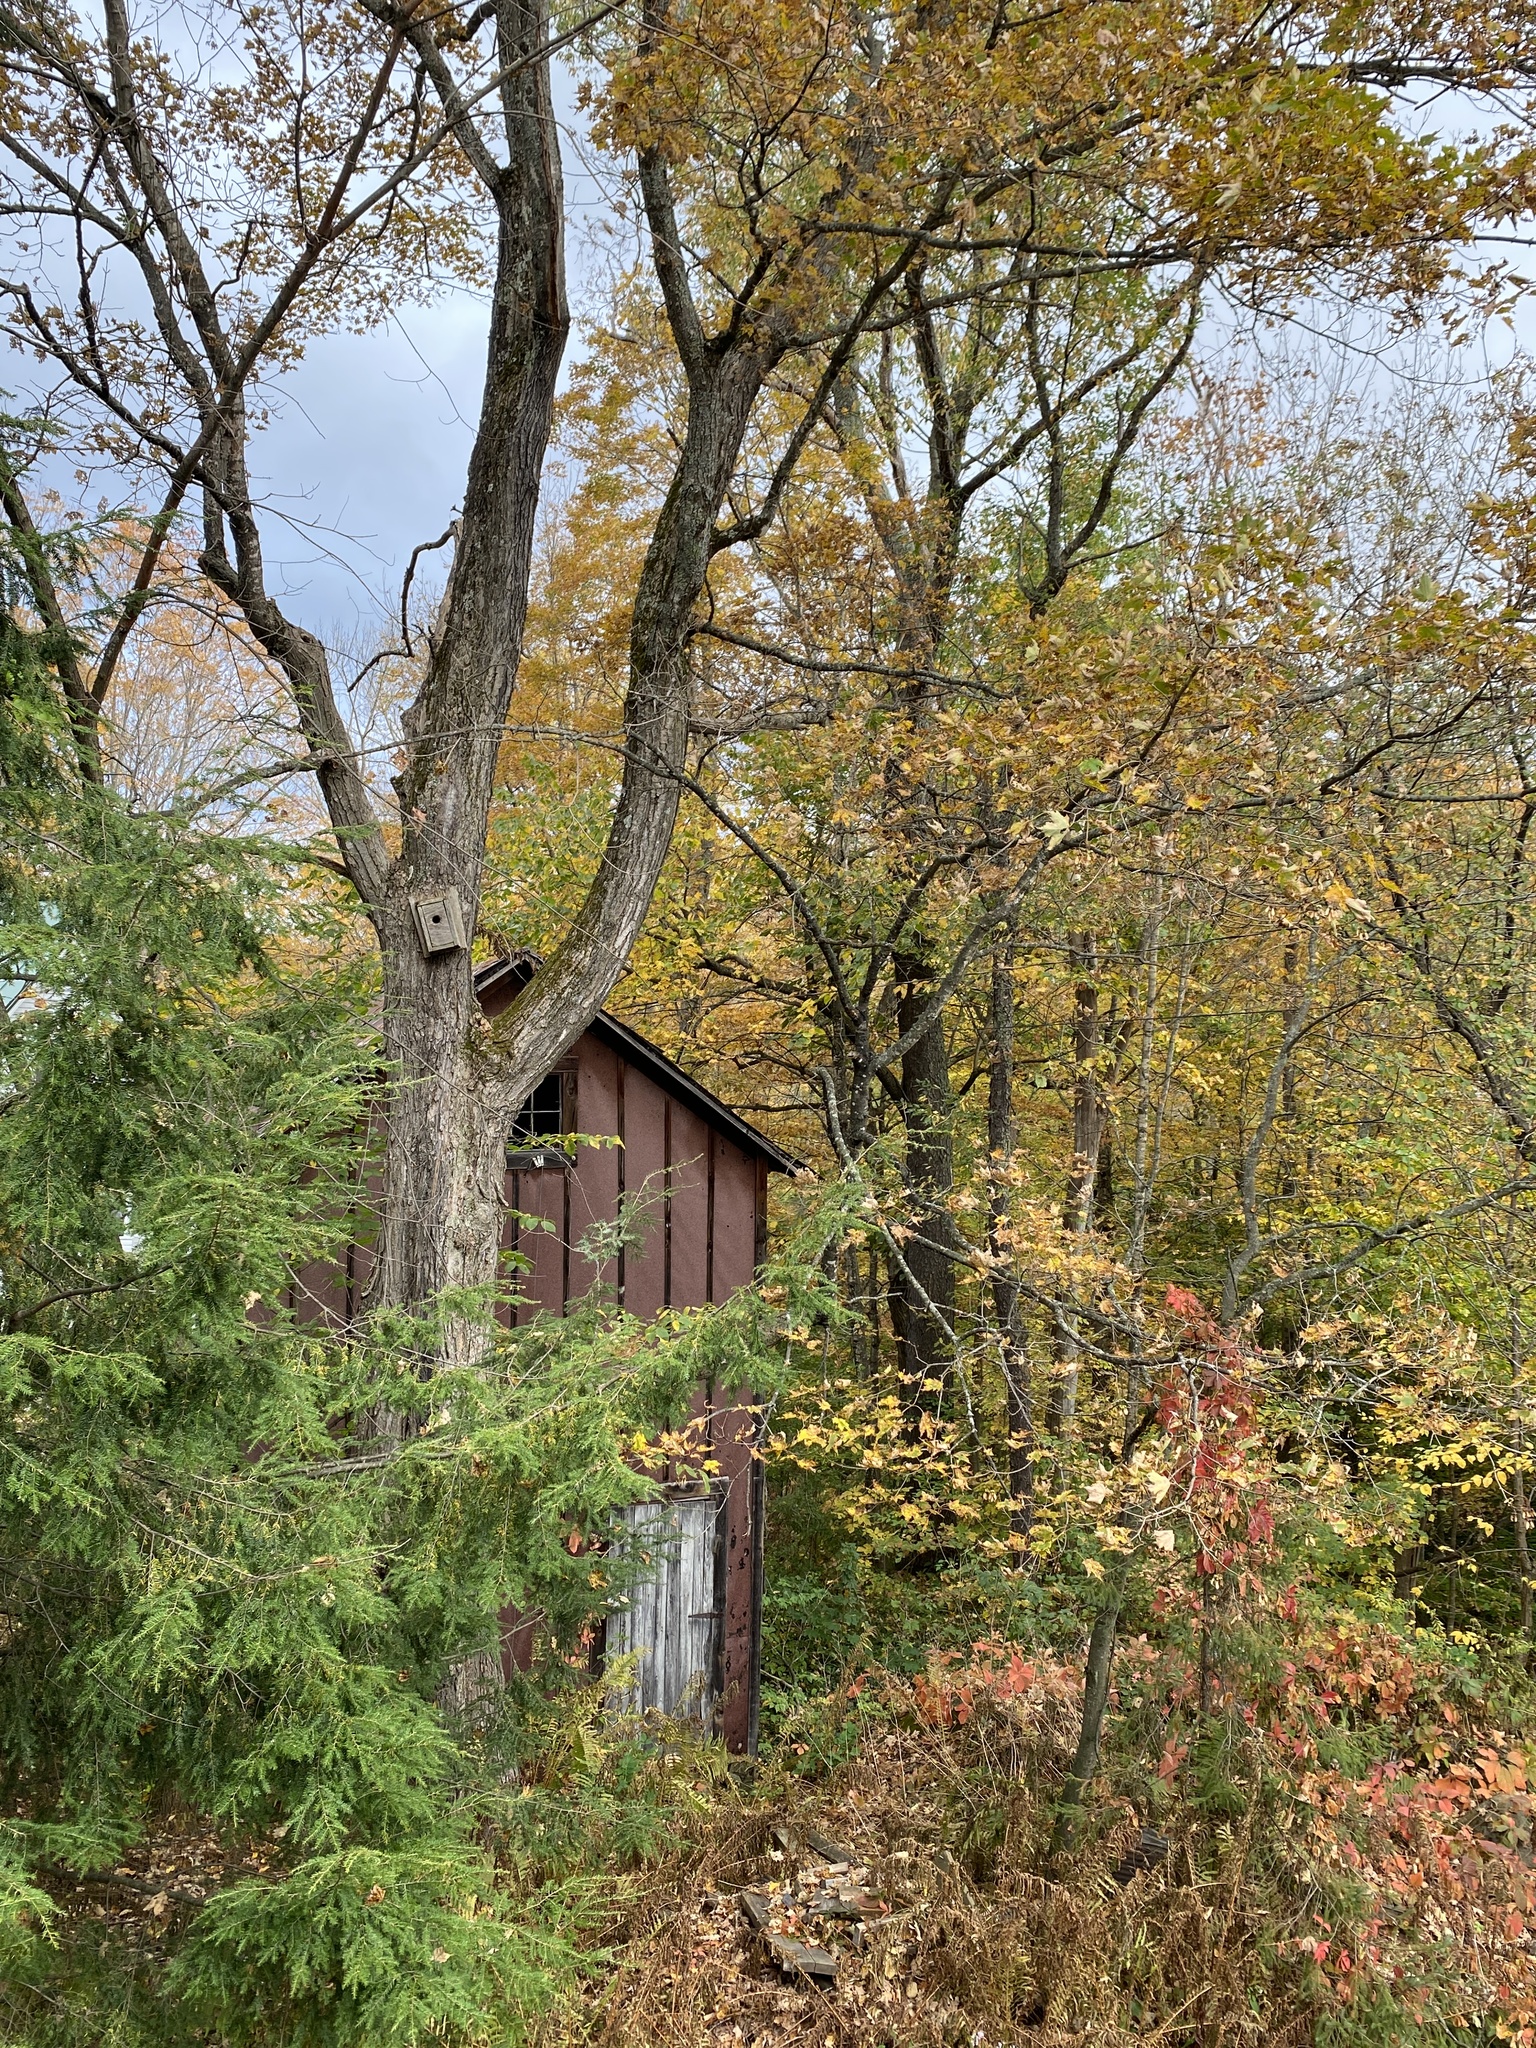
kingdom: Plantae
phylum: Tracheophyta
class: Magnoliopsida
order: Sapindales
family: Sapindaceae
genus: Acer
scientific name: Acer saccharum
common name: Sugar maple
